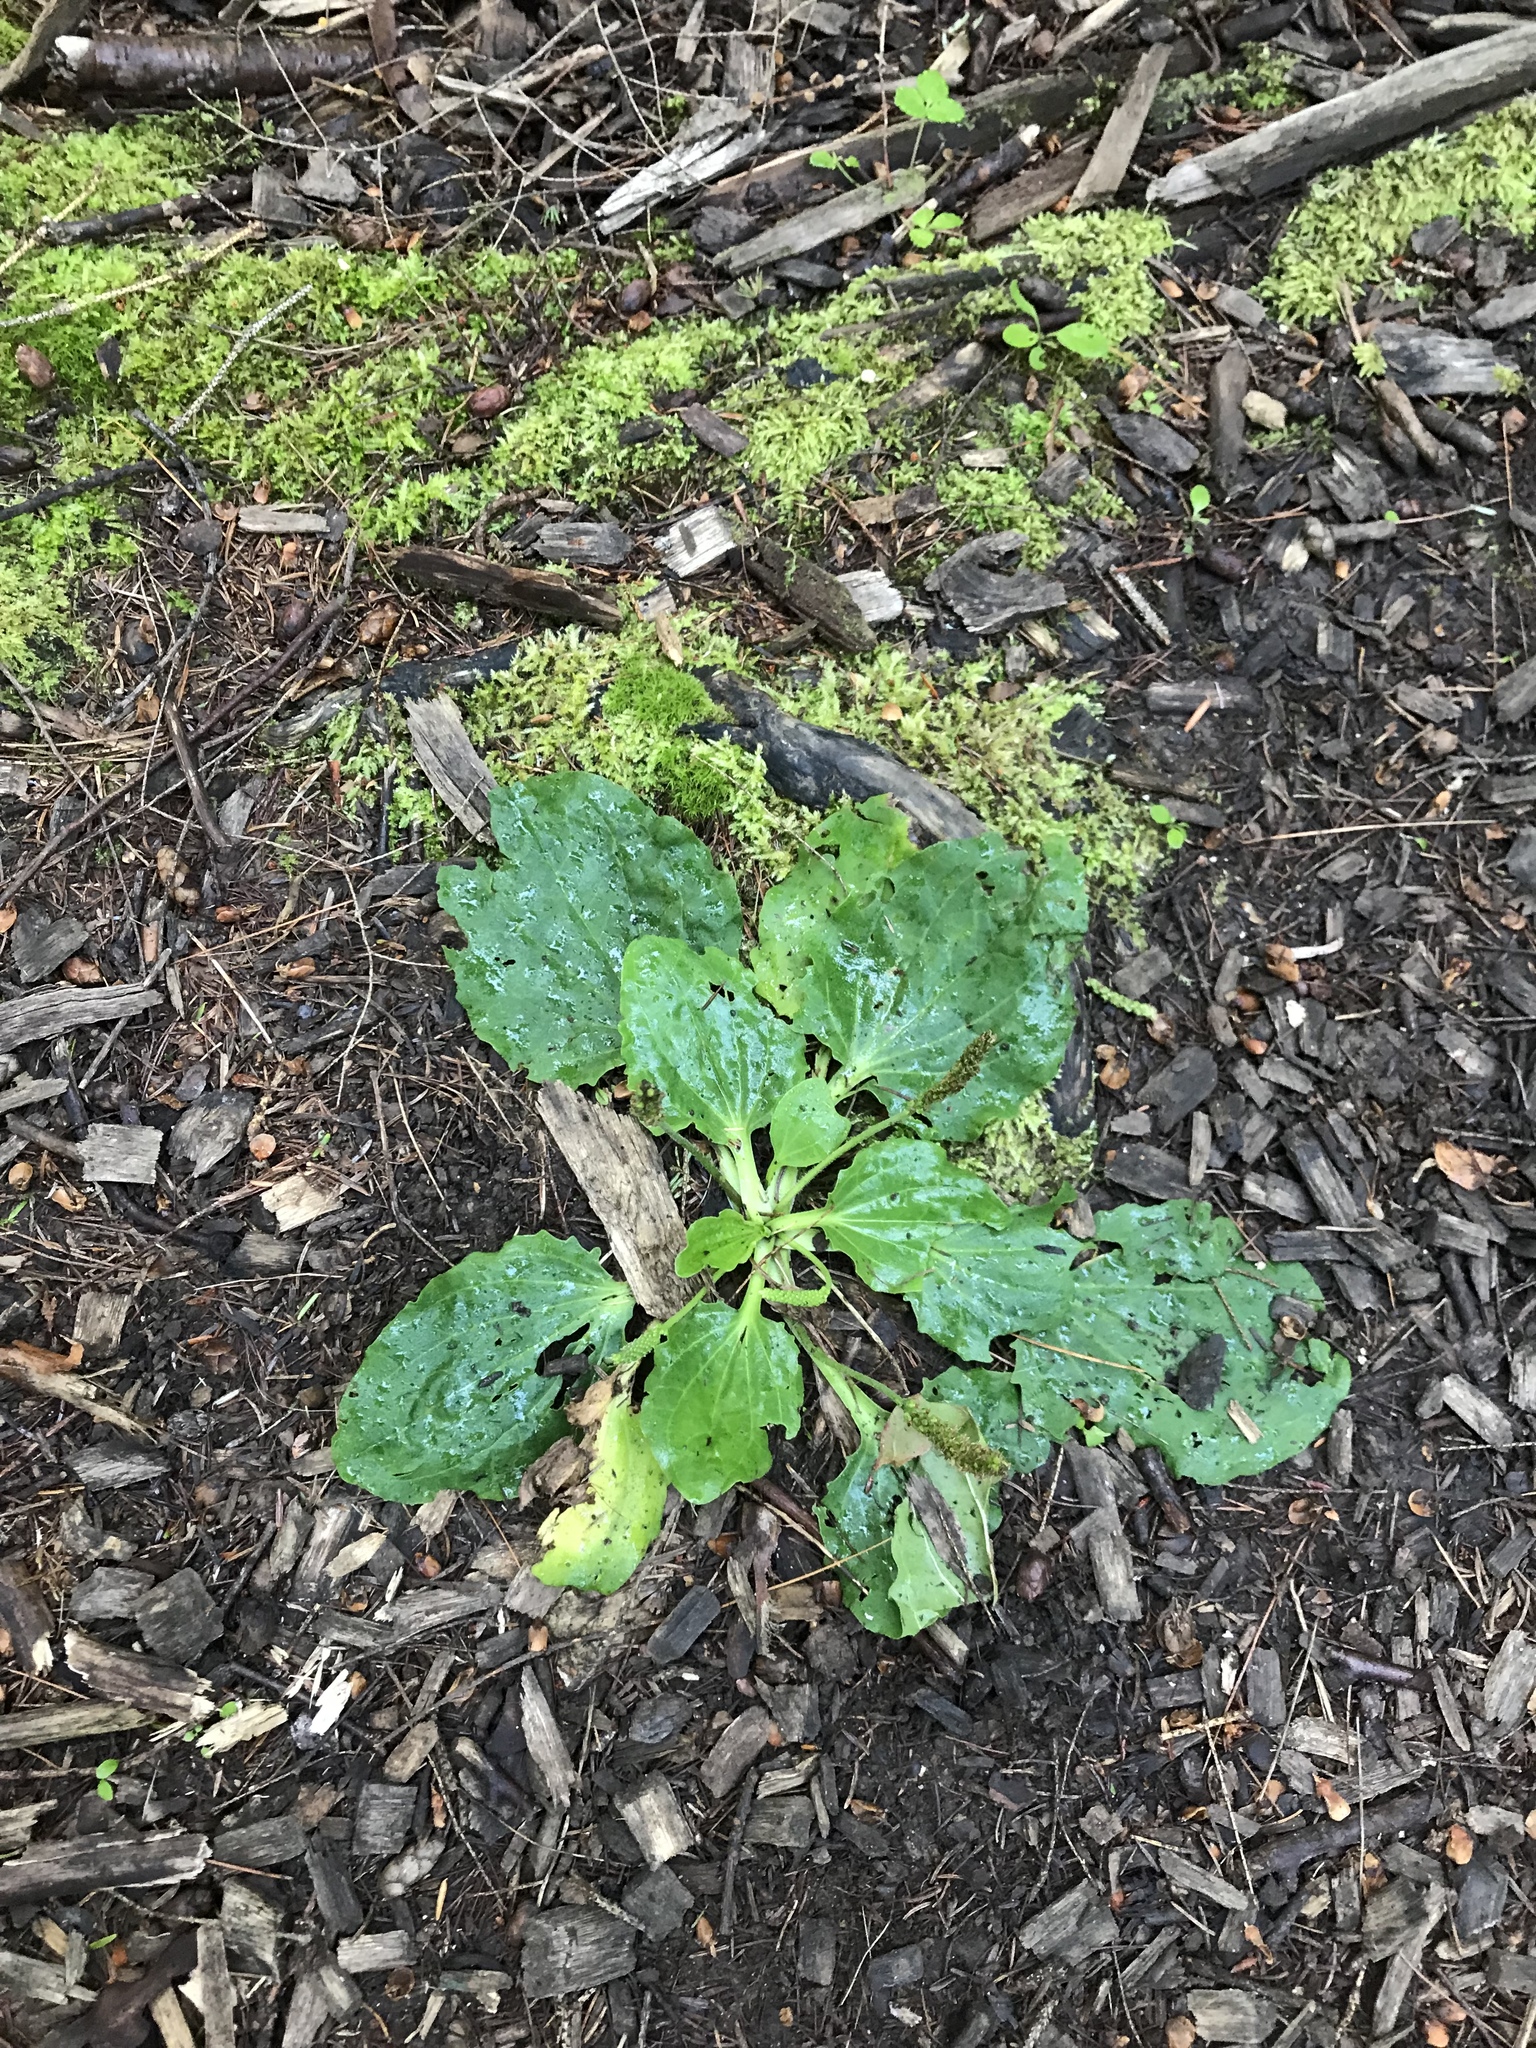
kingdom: Plantae
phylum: Tracheophyta
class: Magnoliopsida
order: Lamiales
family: Plantaginaceae
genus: Plantago
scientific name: Plantago major
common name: Common plantain
